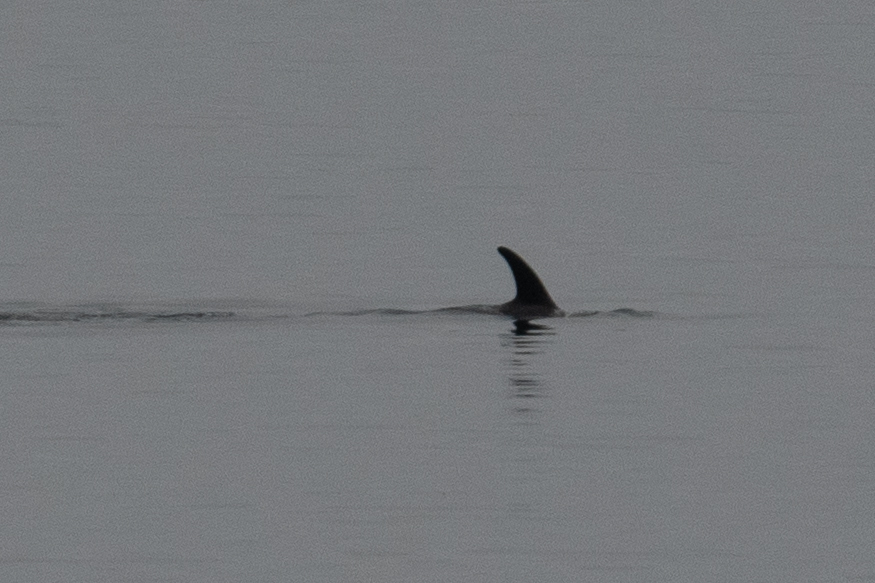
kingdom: Animalia
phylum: Chordata
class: Mammalia
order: Cetacea
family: Delphinidae
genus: Grampus
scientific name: Grampus griseus
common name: Risso's dolphin
